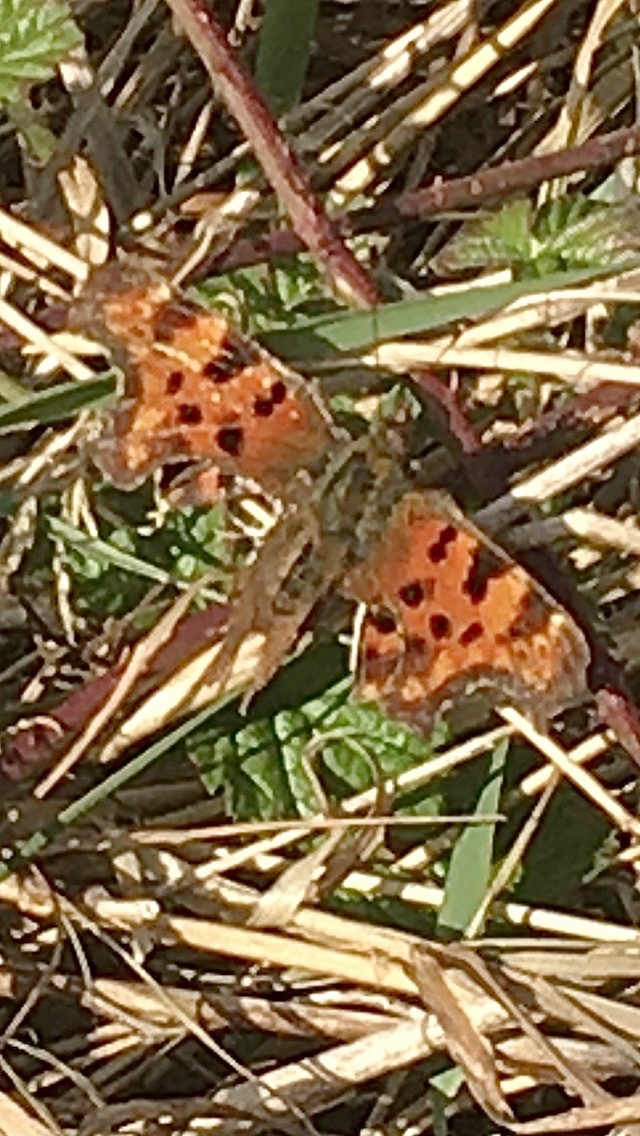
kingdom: Animalia
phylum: Arthropoda
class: Insecta
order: Lepidoptera
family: Nymphalidae
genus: Polygonia
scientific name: Polygonia c-album
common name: Comma
